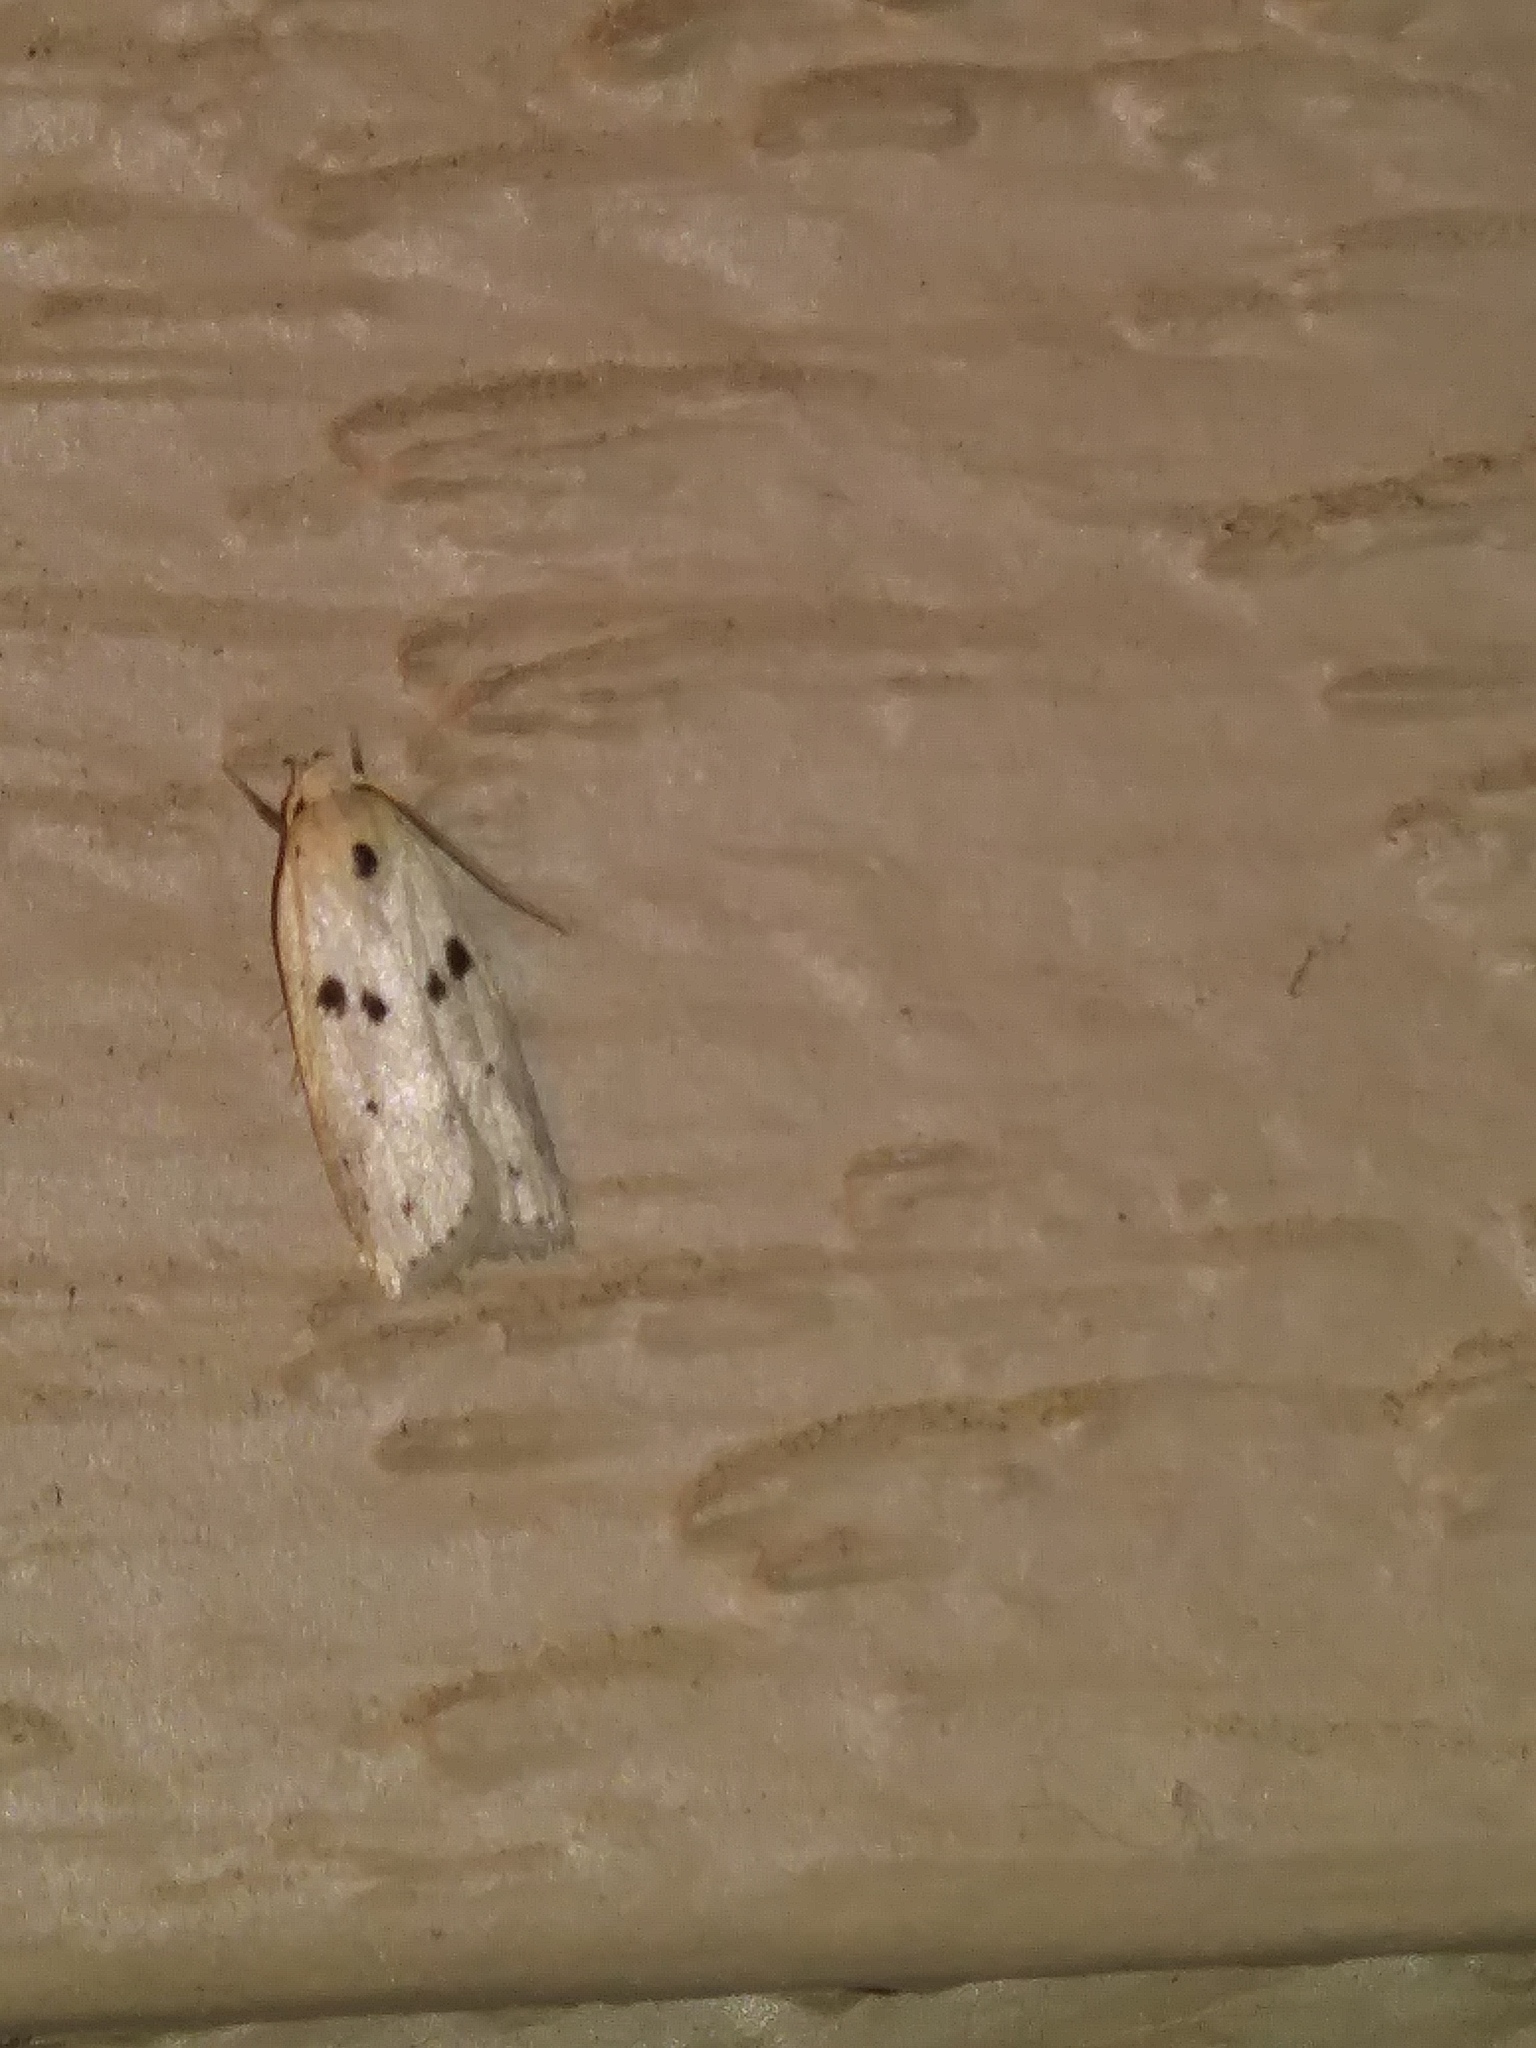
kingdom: Animalia
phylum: Arthropoda
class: Insecta
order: Lepidoptera
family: Peleopodidae
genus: Scythropiodes
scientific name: Scythropiodes issikii
